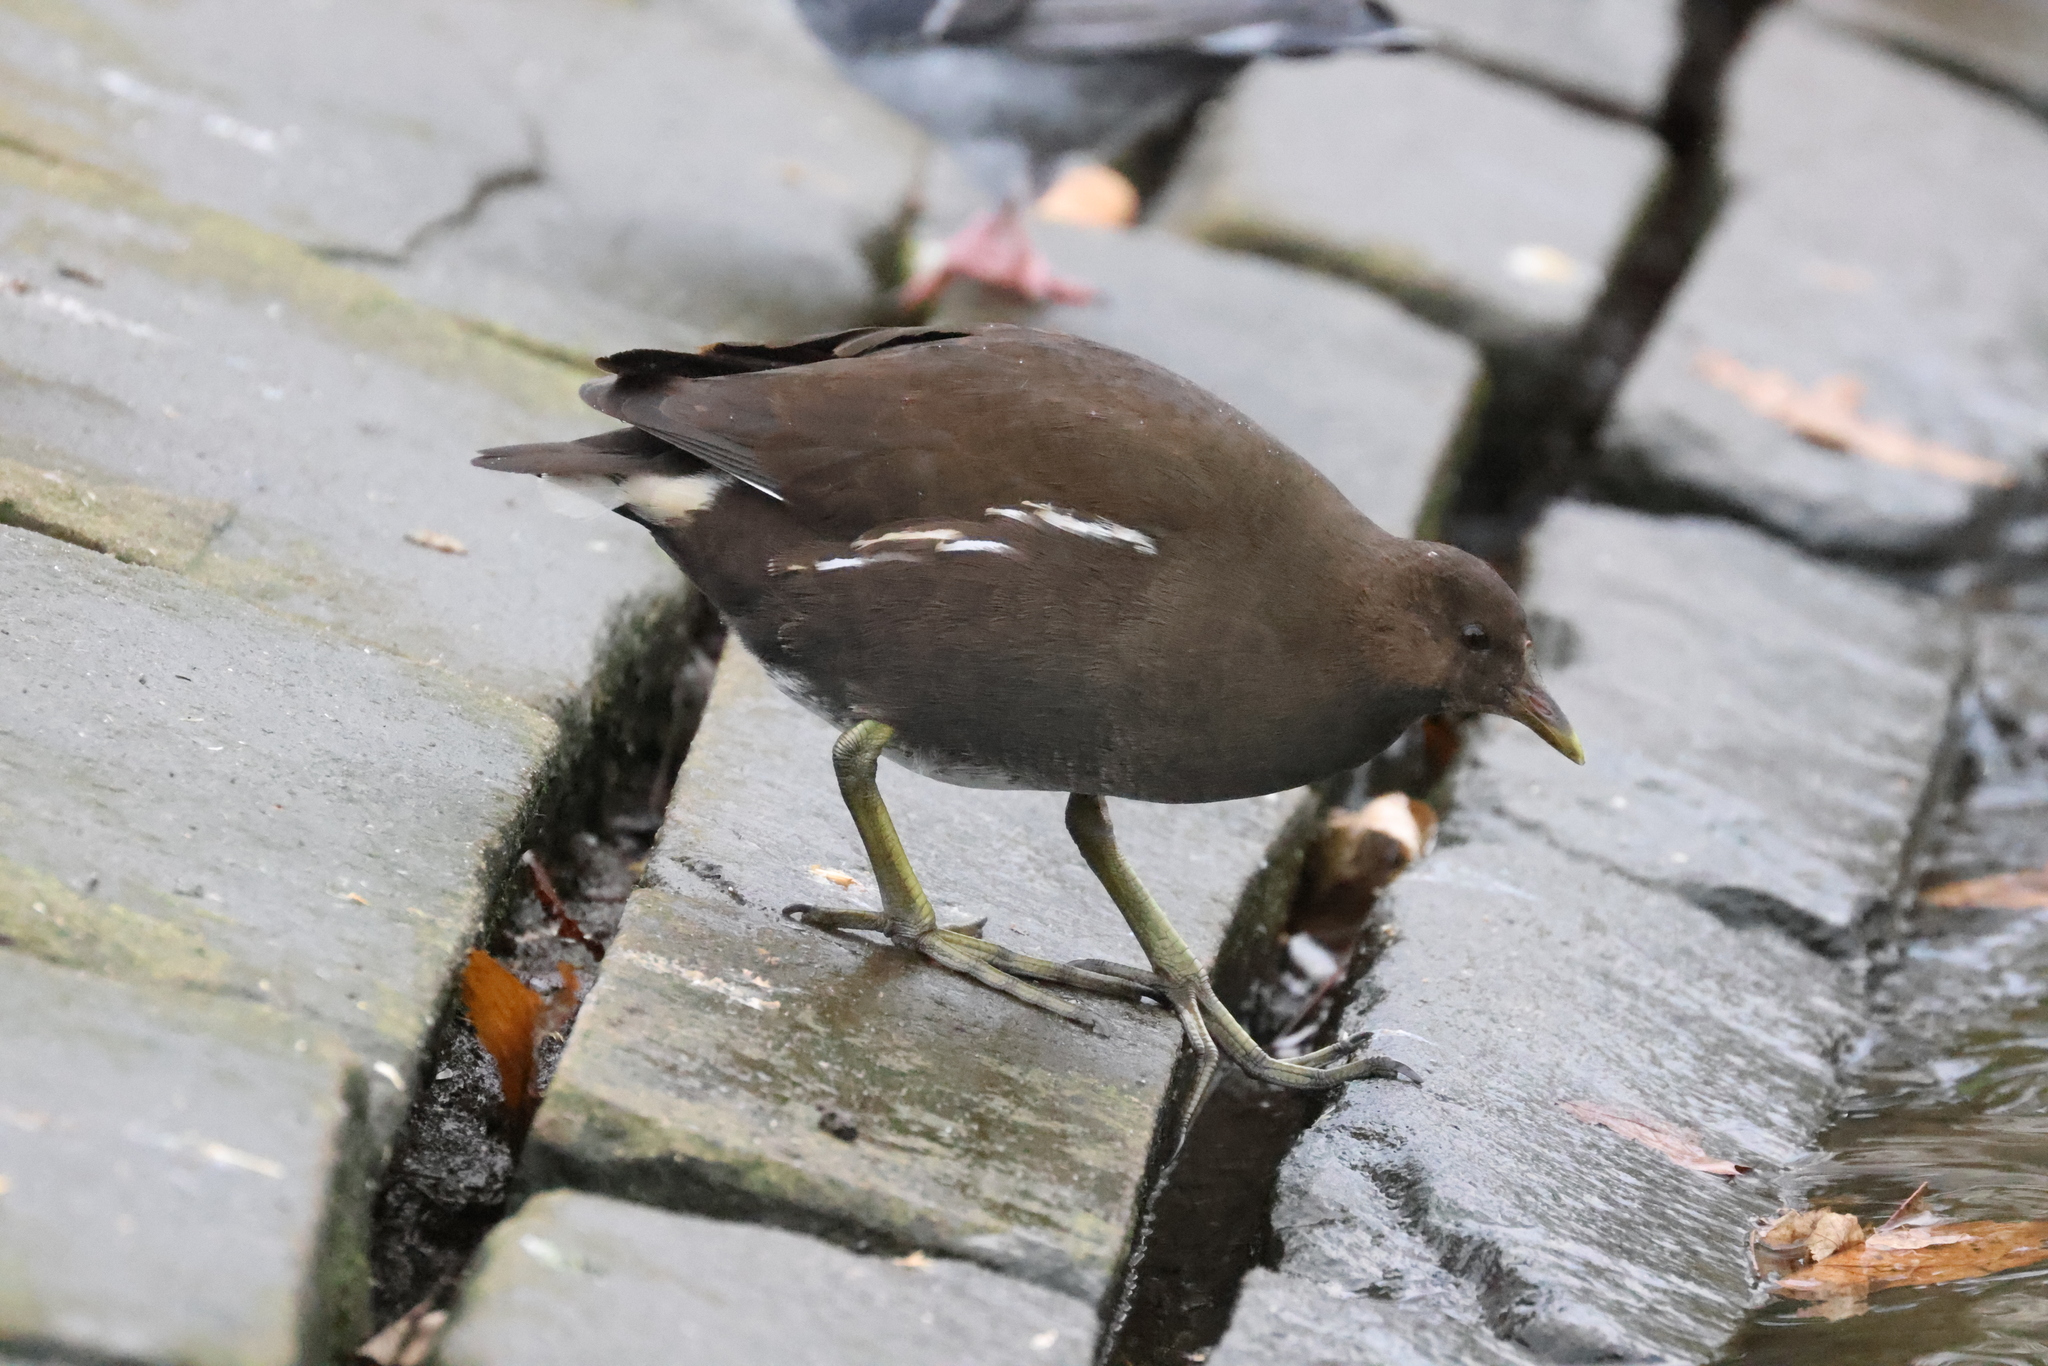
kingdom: Animalia
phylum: Chordata
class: Aves
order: Gruiformes
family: Rallidae
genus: Gallinula
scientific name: Gallinula chloropus
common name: Common moorhen
